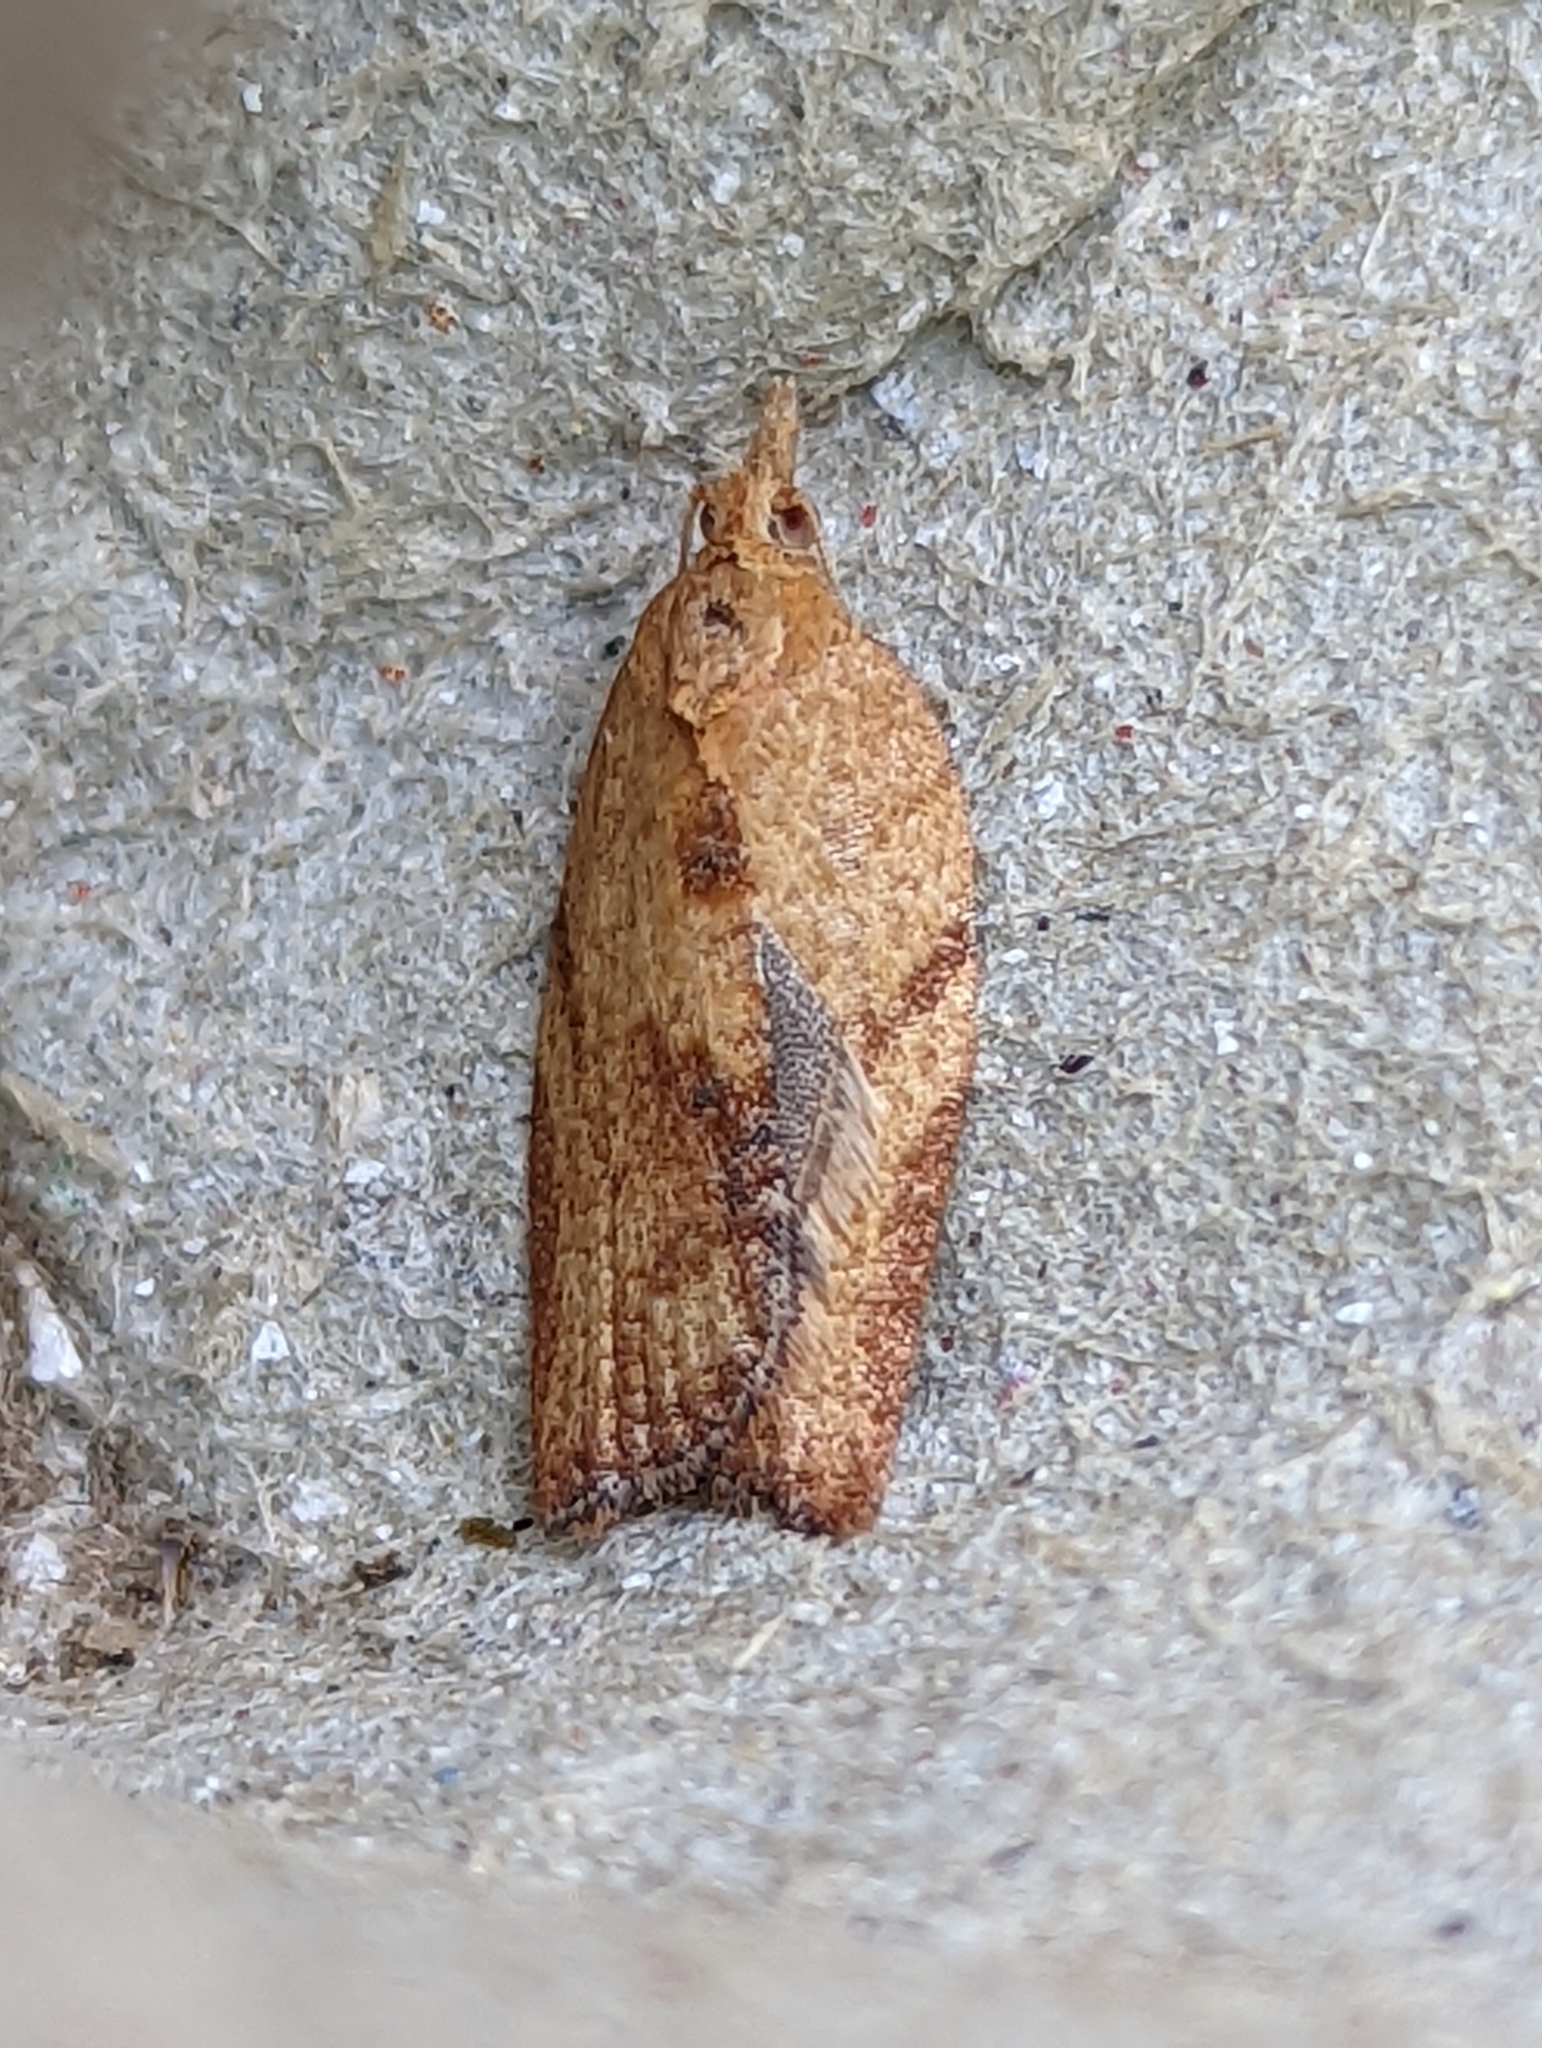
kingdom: Animalia
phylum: Arthropoda
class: Insecta
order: Lepidoptera
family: Tortricidae
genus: Epiphyas
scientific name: Epiphyas postvittana
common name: Light brown apple moth
